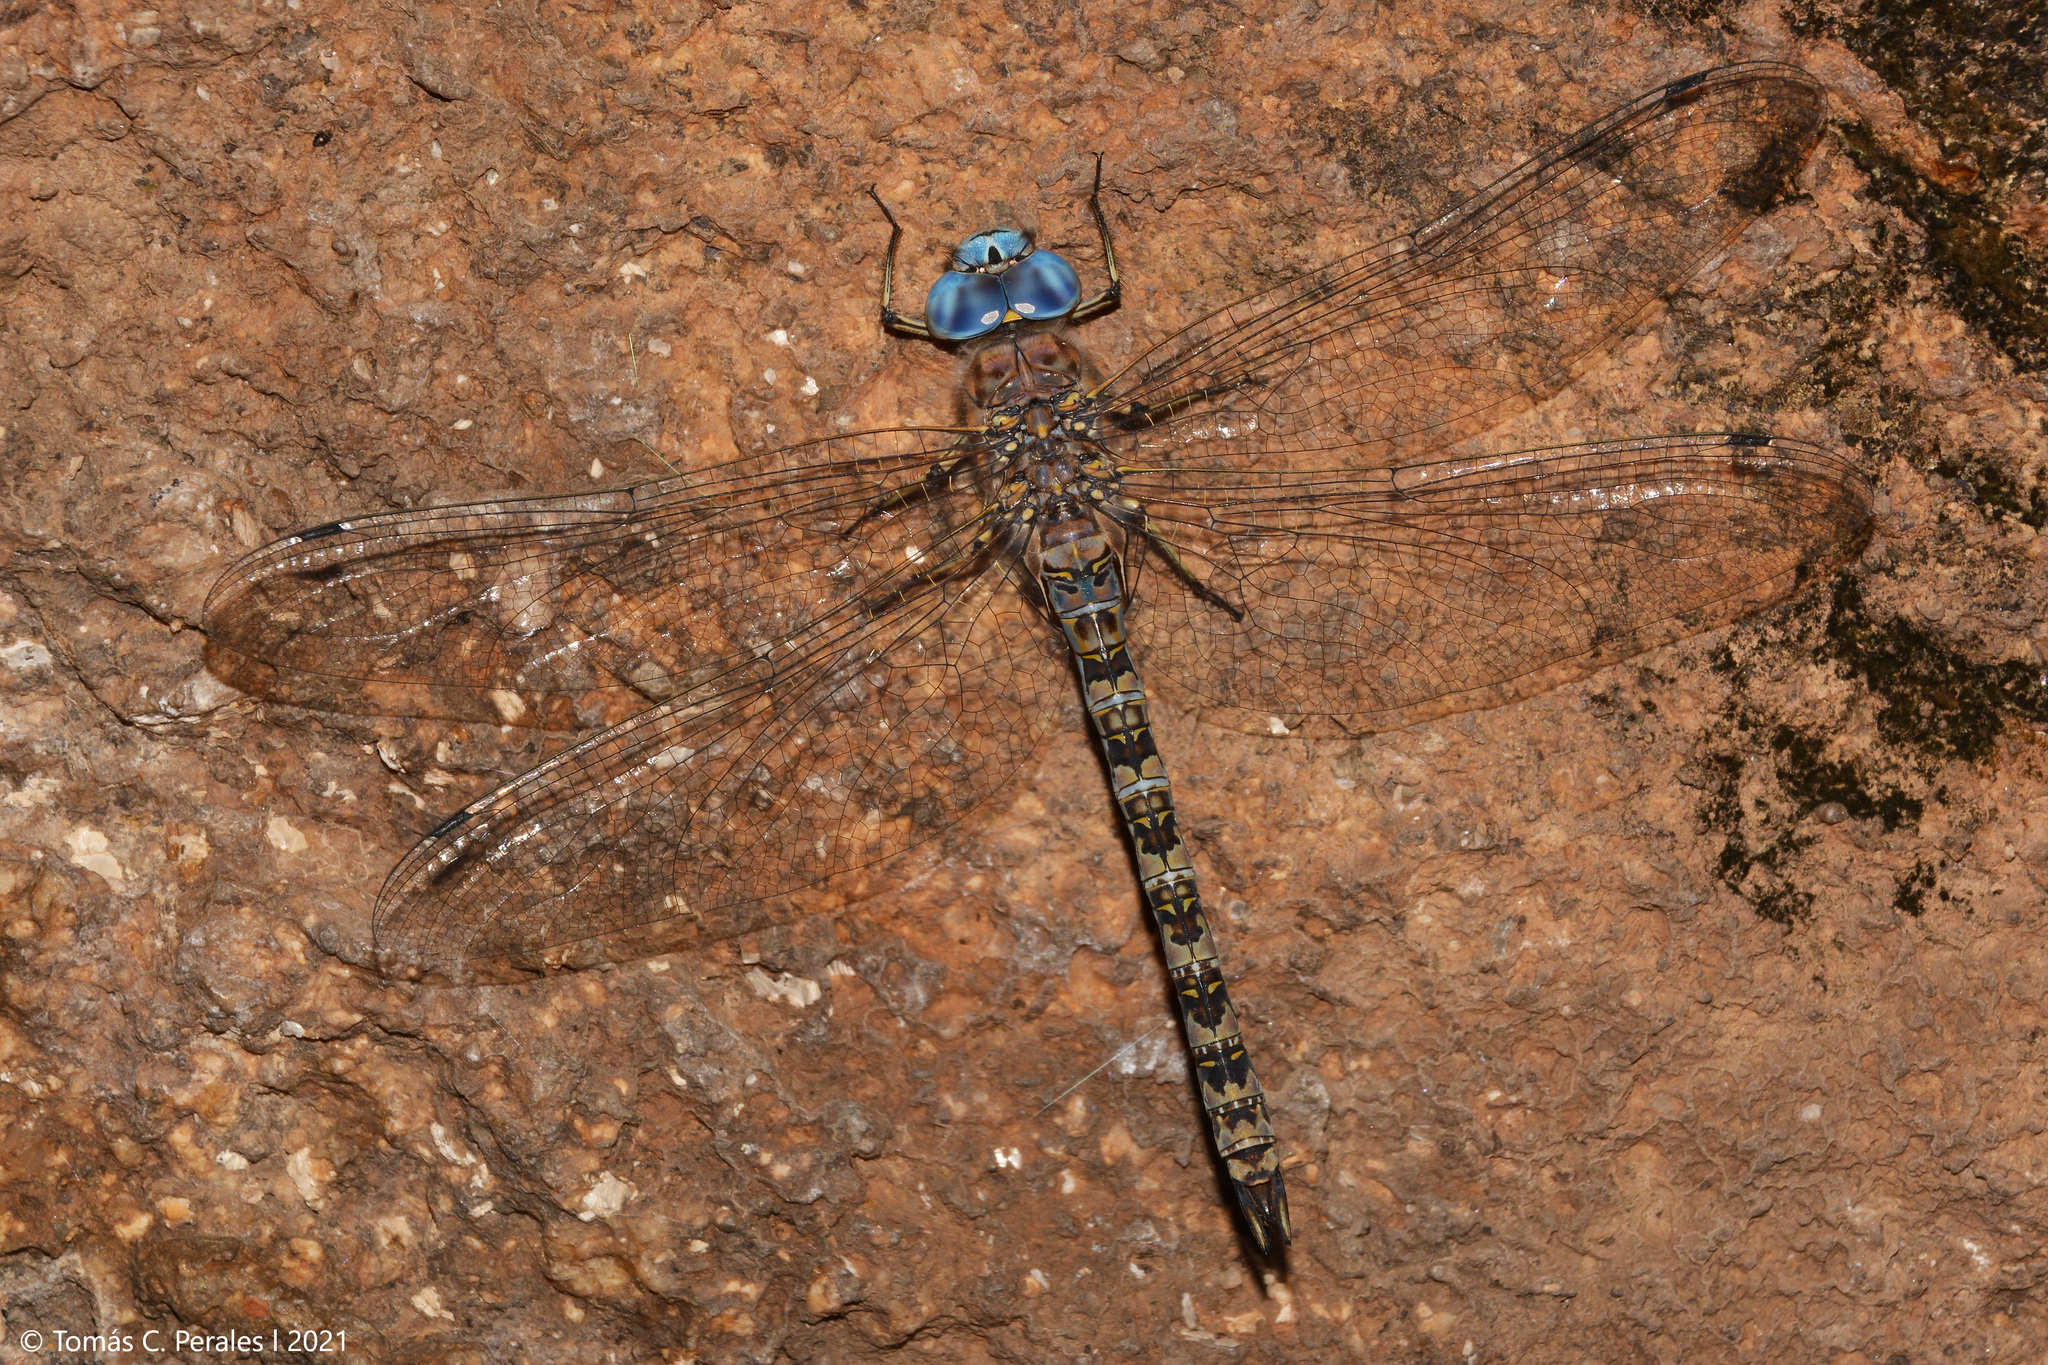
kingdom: Animalia
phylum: Arthropoda
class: Insecta
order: Odonata
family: Aeshnidae
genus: Rhionaeschna
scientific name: Rhionaeschna pallipes
